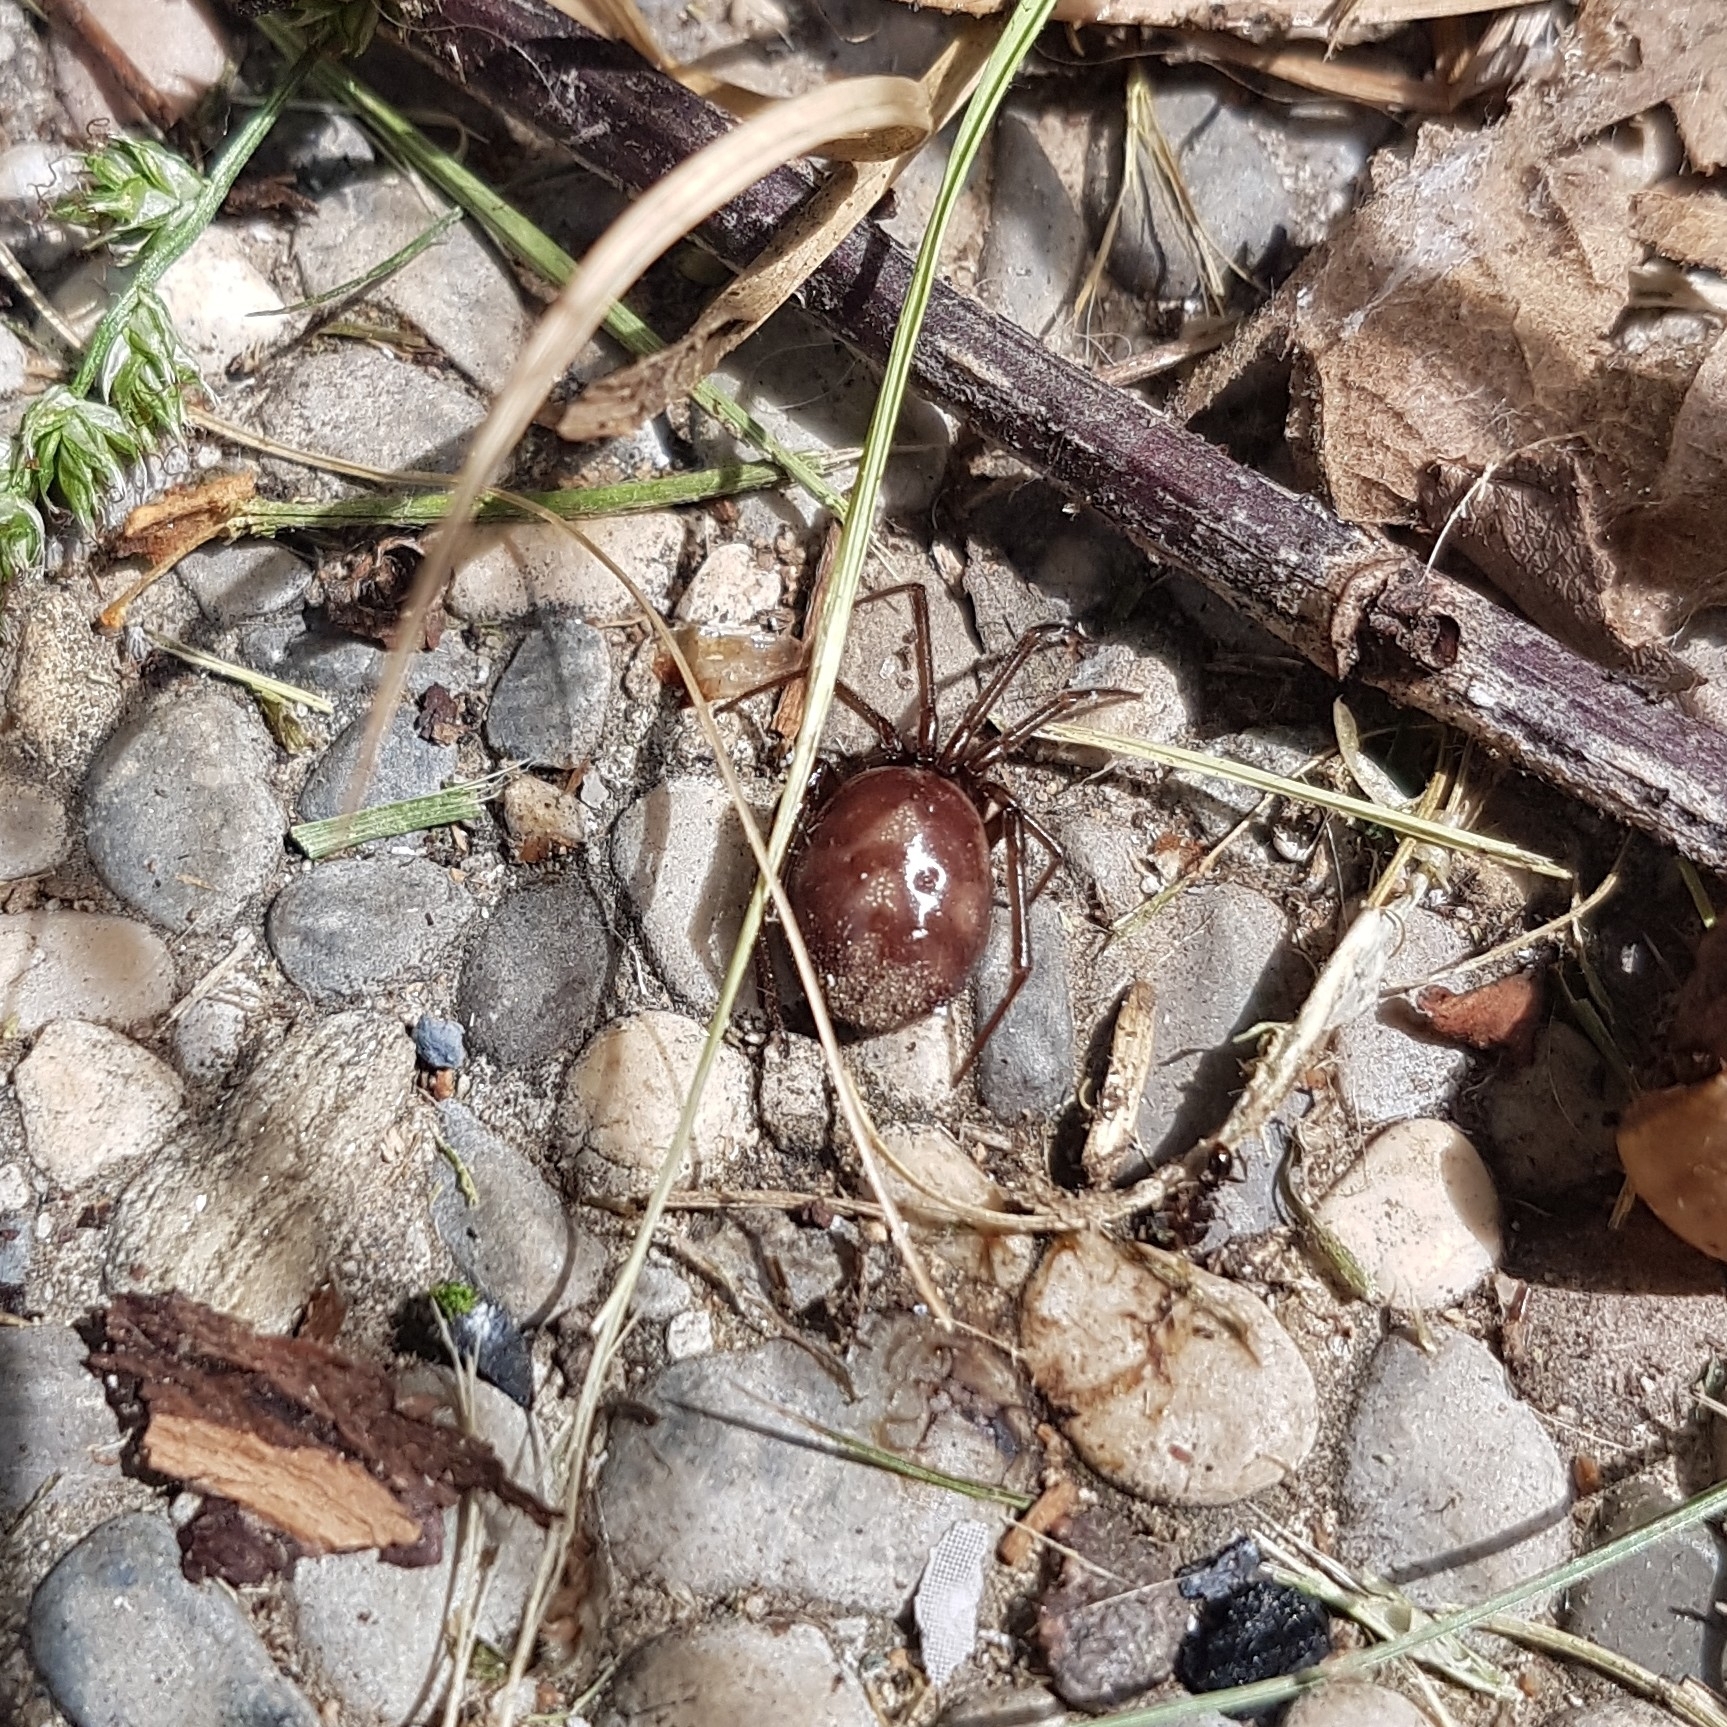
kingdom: Animalia
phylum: Arthropoda
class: Arachnida
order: Araneae
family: Theridiidae
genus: Steatoda
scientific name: Steatoda grossa
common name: False black widow
